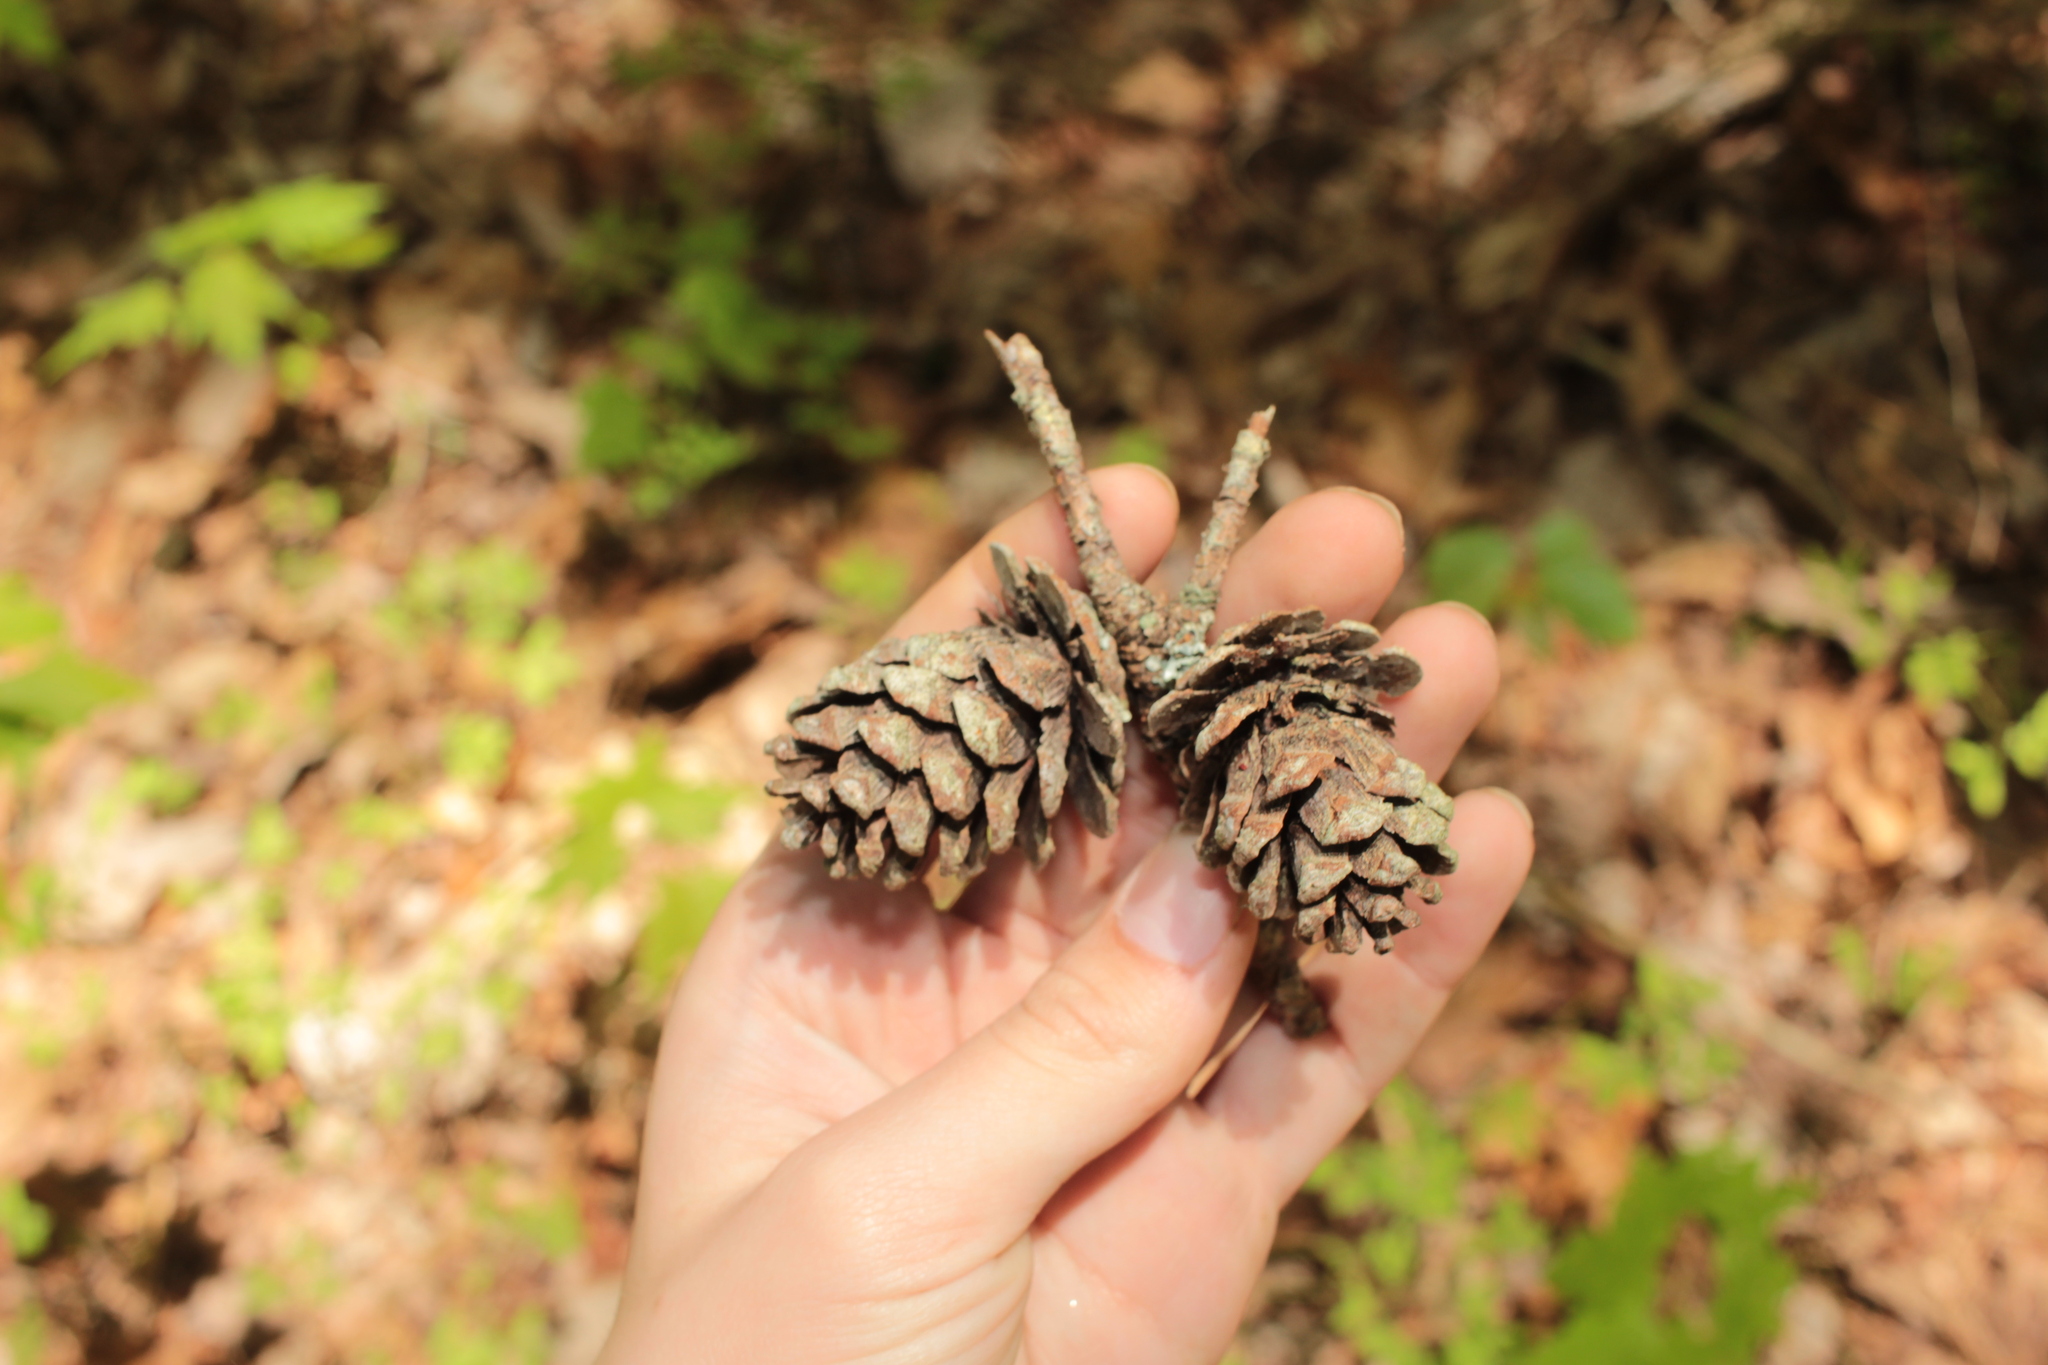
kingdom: Plantae
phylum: Tracheophyta
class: Pinopsida
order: Pinales
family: Pinaceae
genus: Pinus
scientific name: Pinus echinata
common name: Shortleaf pine
